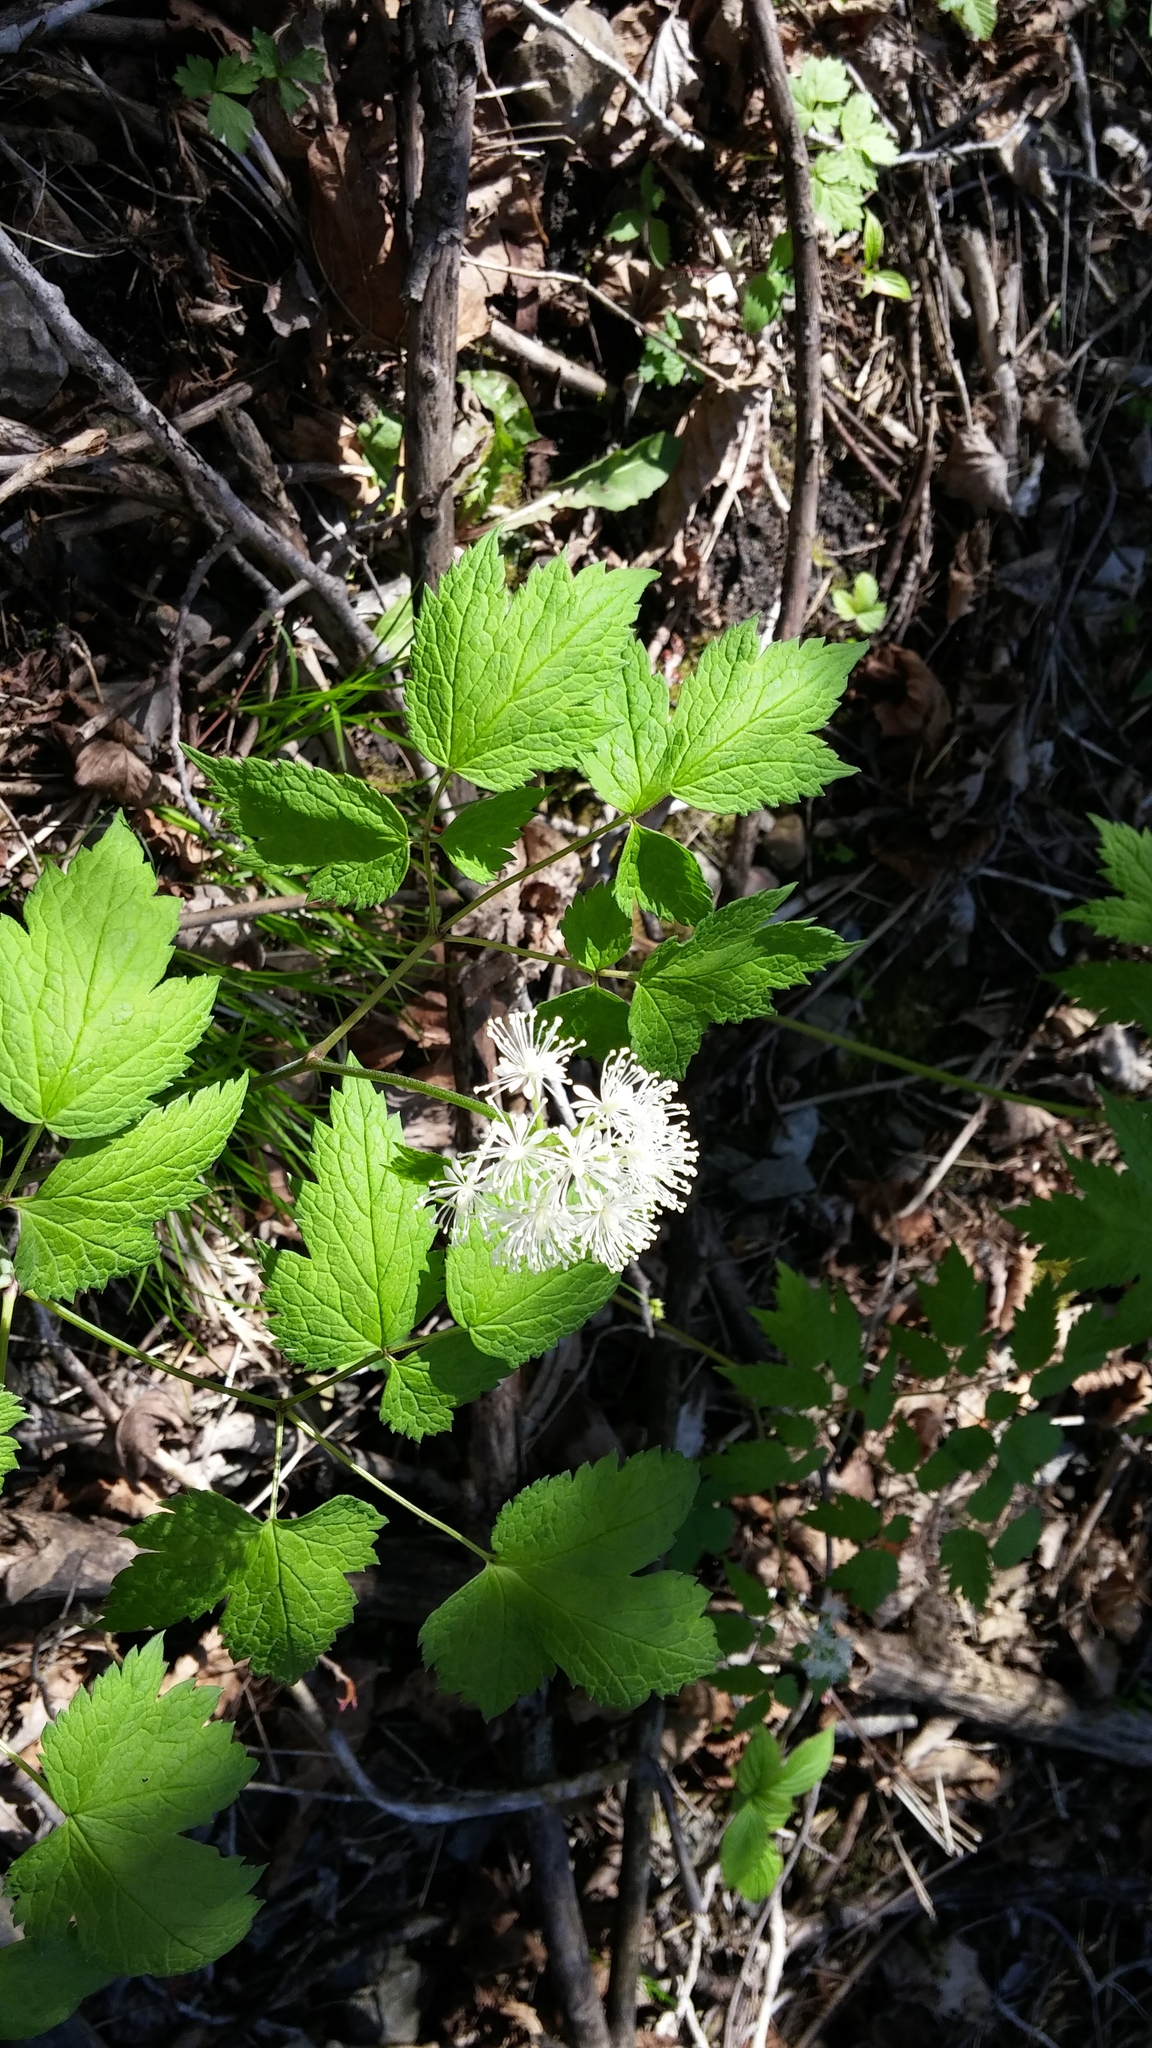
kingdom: Plantae
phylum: Tracheophyta
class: Magnoliopsida
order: Ranunculales
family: Ranunculaceae
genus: Actaea
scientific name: Actaea rubra
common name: Red baneberry
